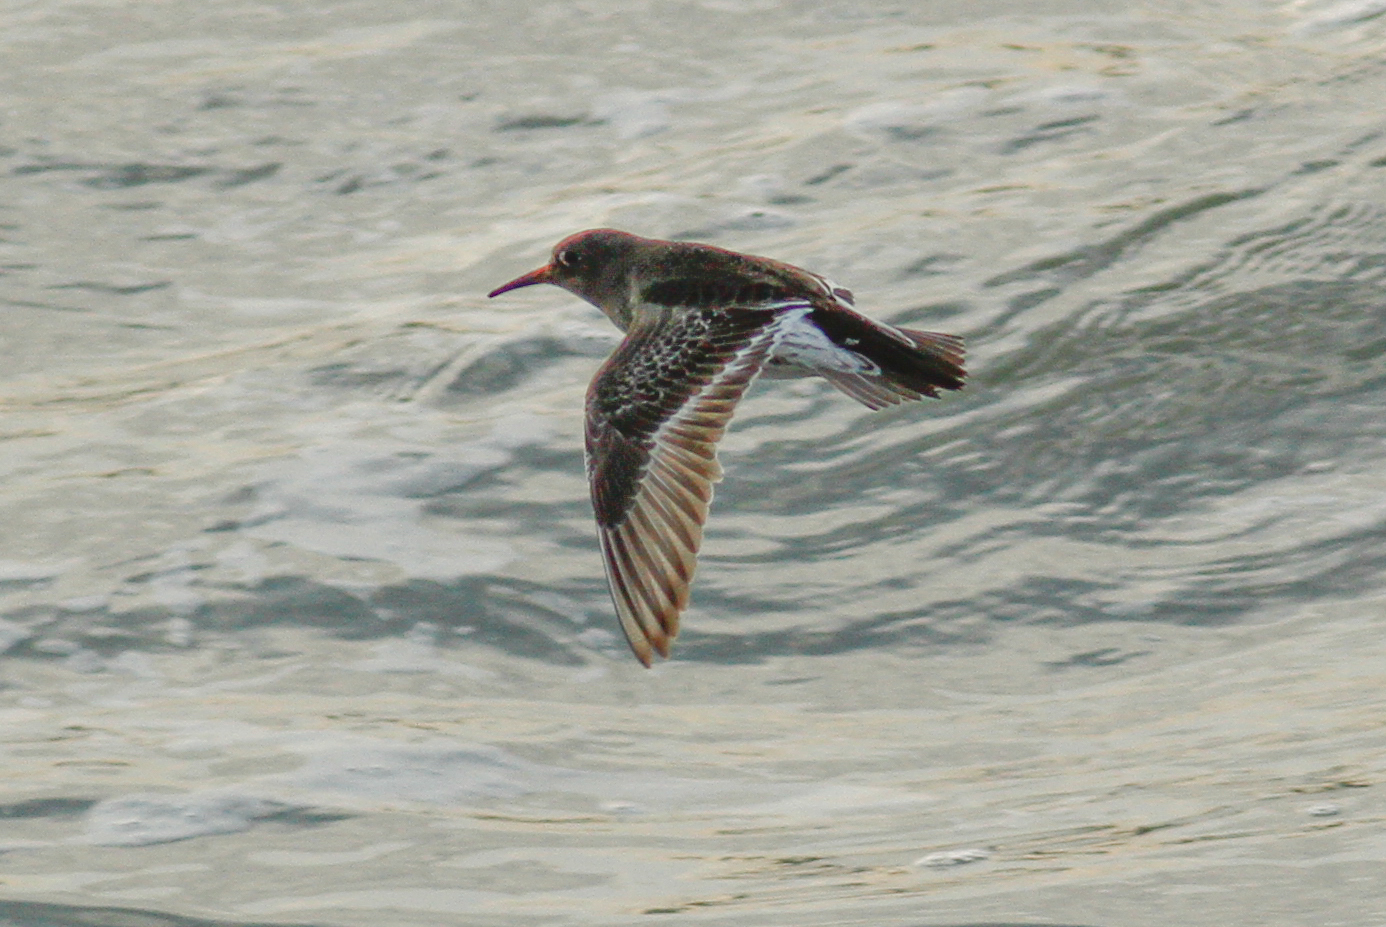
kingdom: Animalia
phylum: Chordata
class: Aves
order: Charadriiformes
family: Scolopacidae
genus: Calidris
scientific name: Calidris maritima
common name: Purple sandpiper
